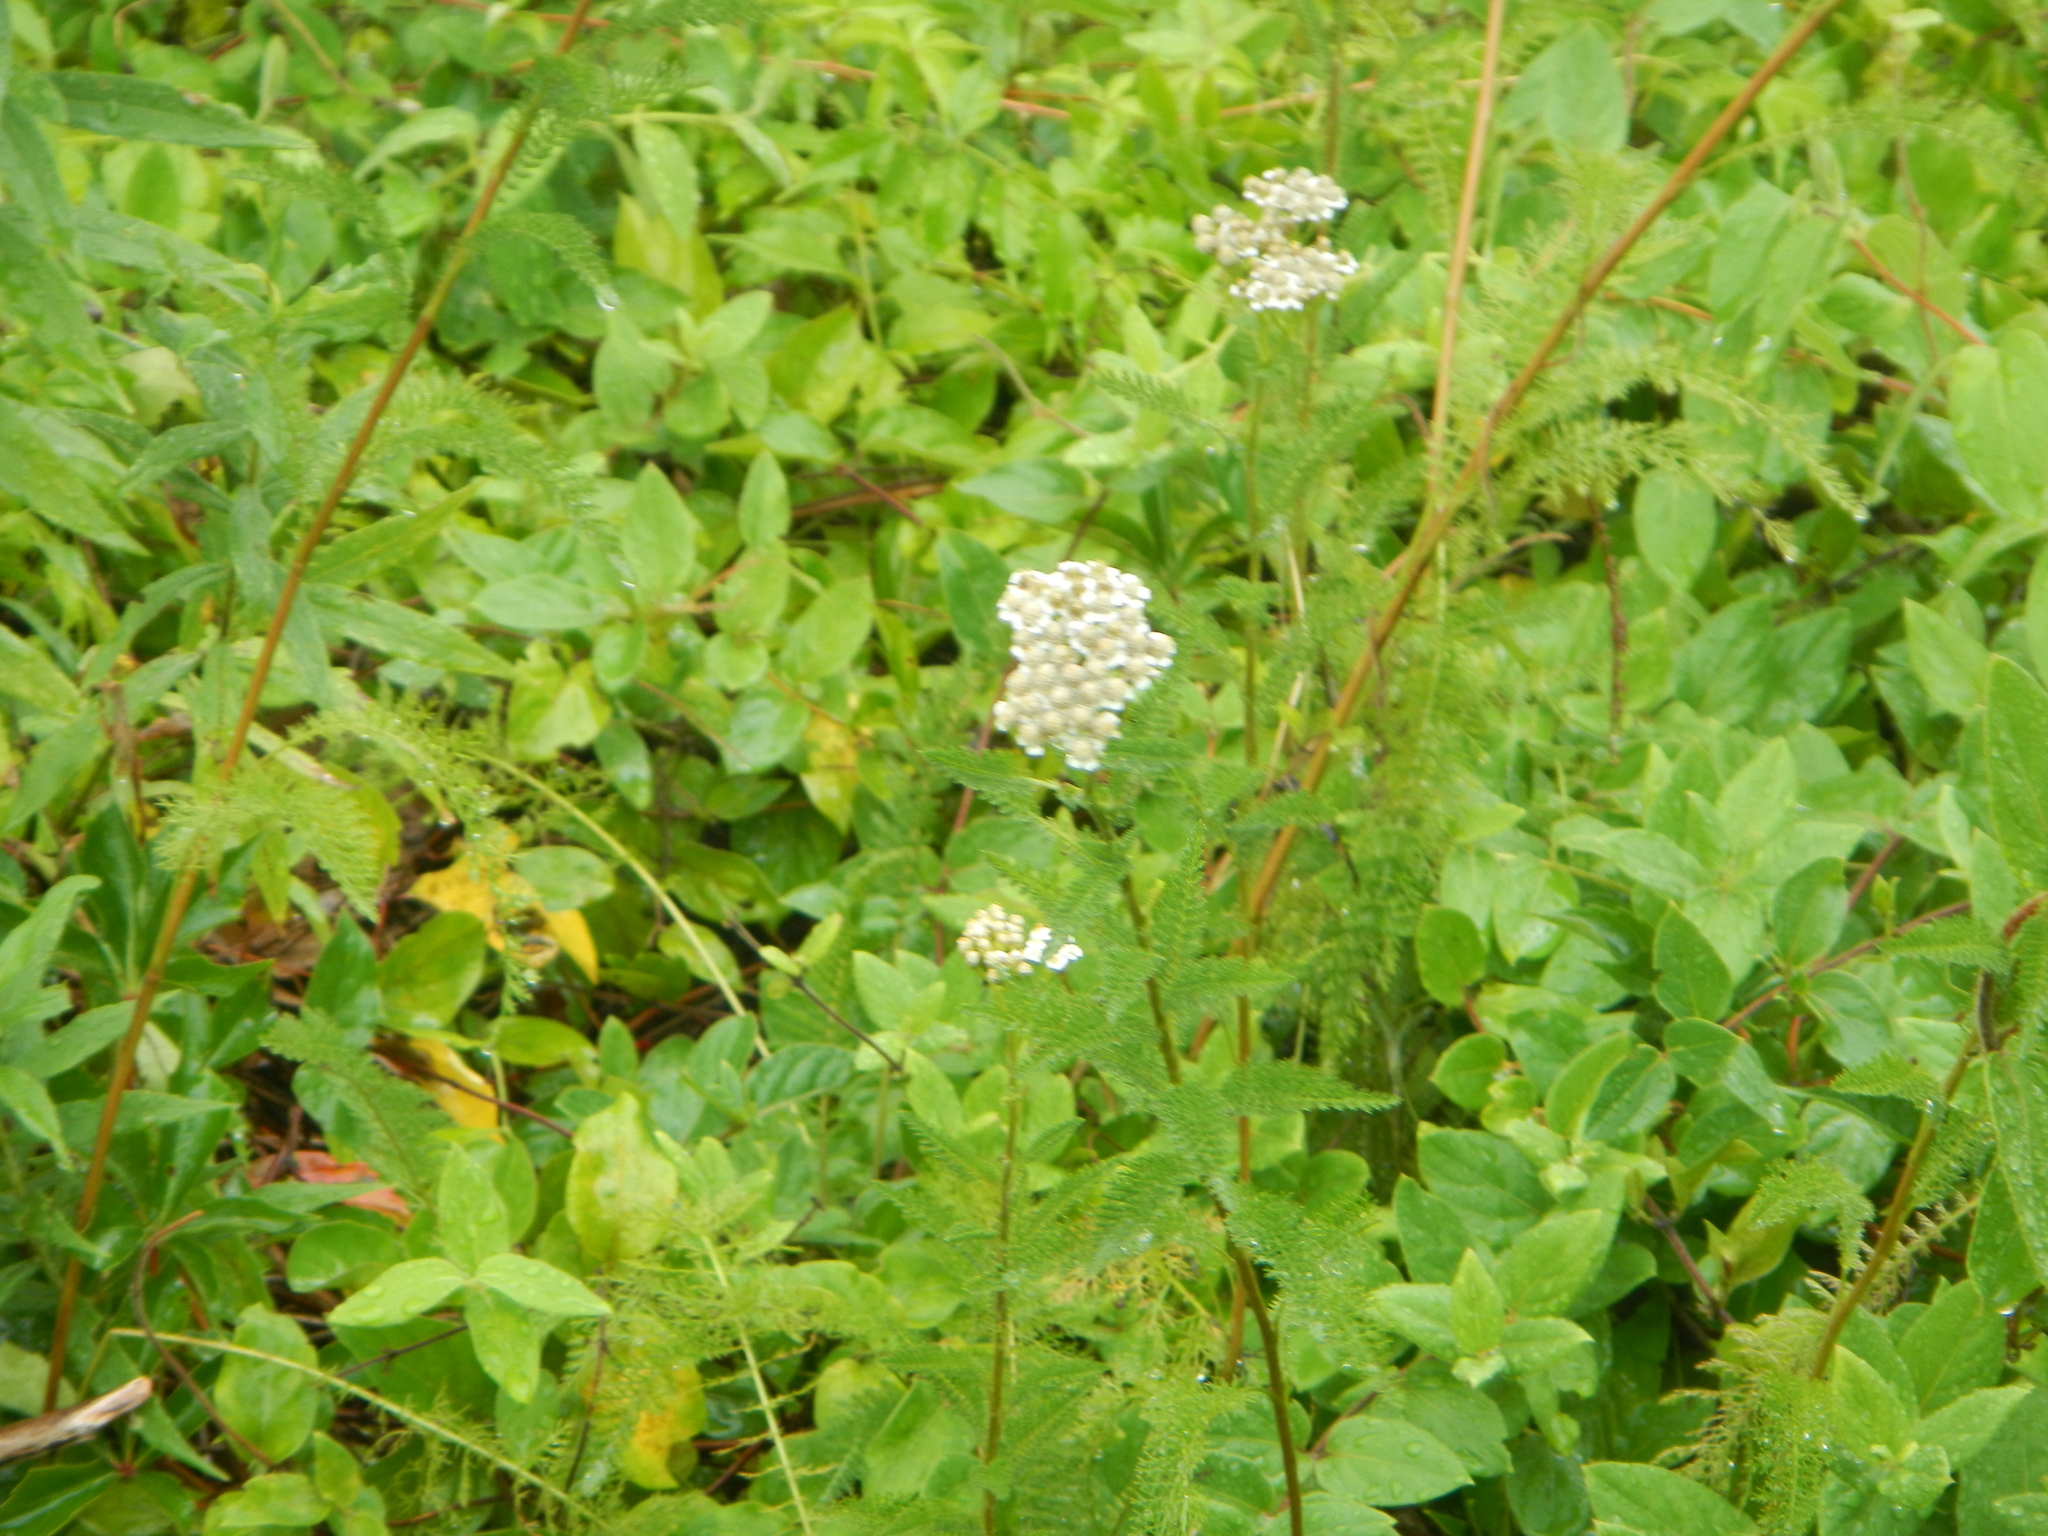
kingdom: Plantae
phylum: Tracheophyta
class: Magnoliopsida
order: Asterales
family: Asteraceae
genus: Achillea
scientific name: Achillea millefolium
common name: Yarrow
